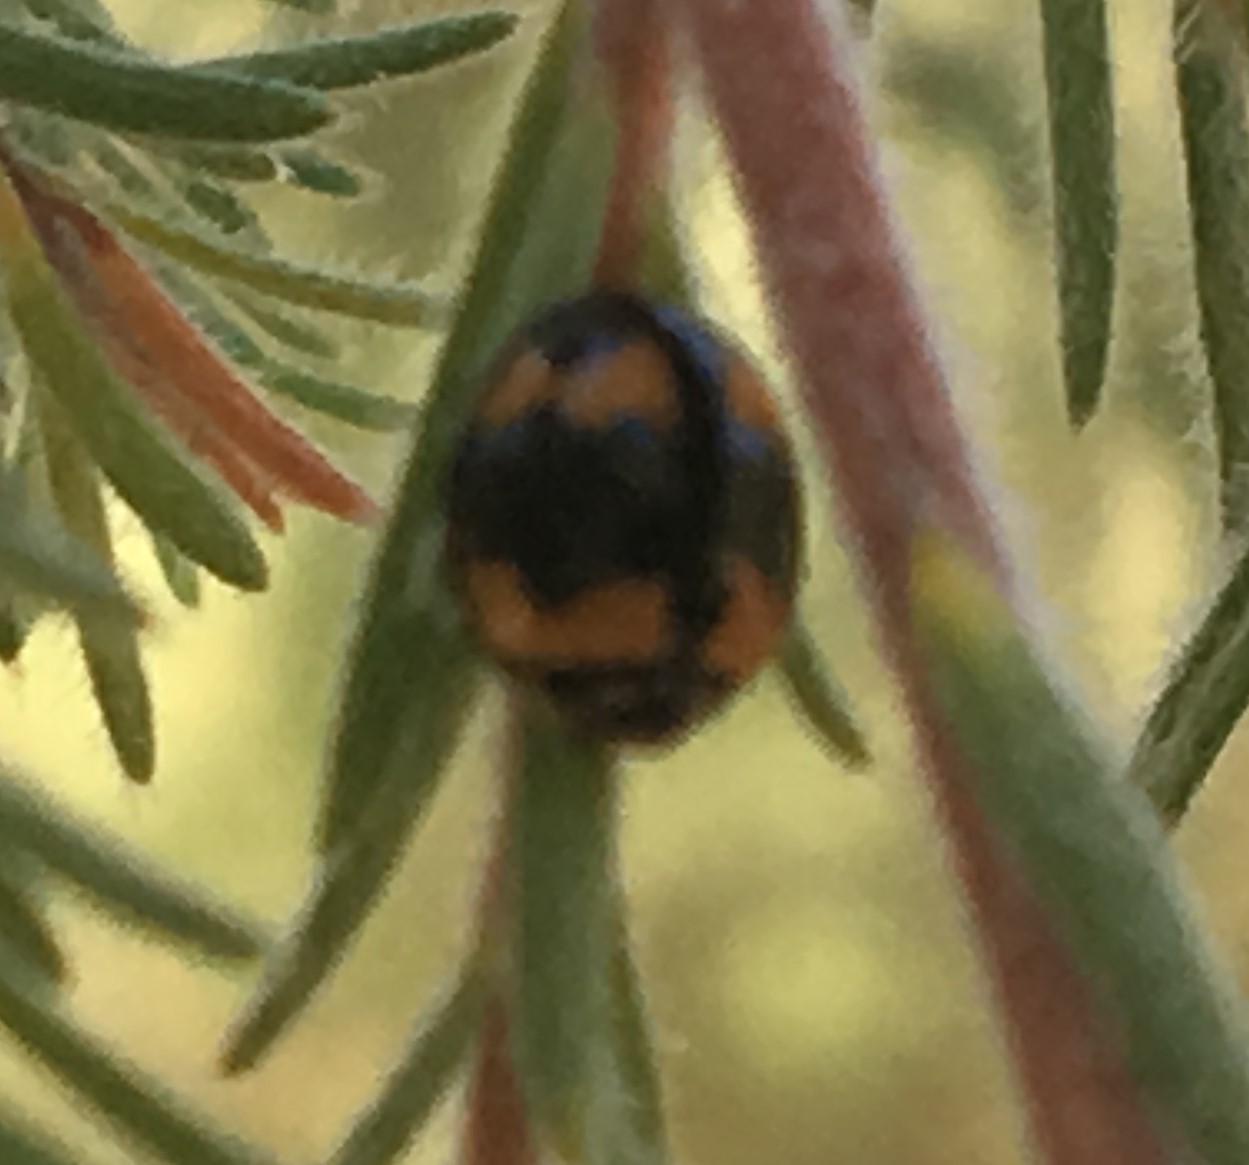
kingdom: Animalia
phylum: Arthropoda
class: Insecta
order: Coleoptera
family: Coccinellidae
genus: Cheilomenes
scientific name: Cheilomenes sexmaculata
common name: Ladybird beetle
